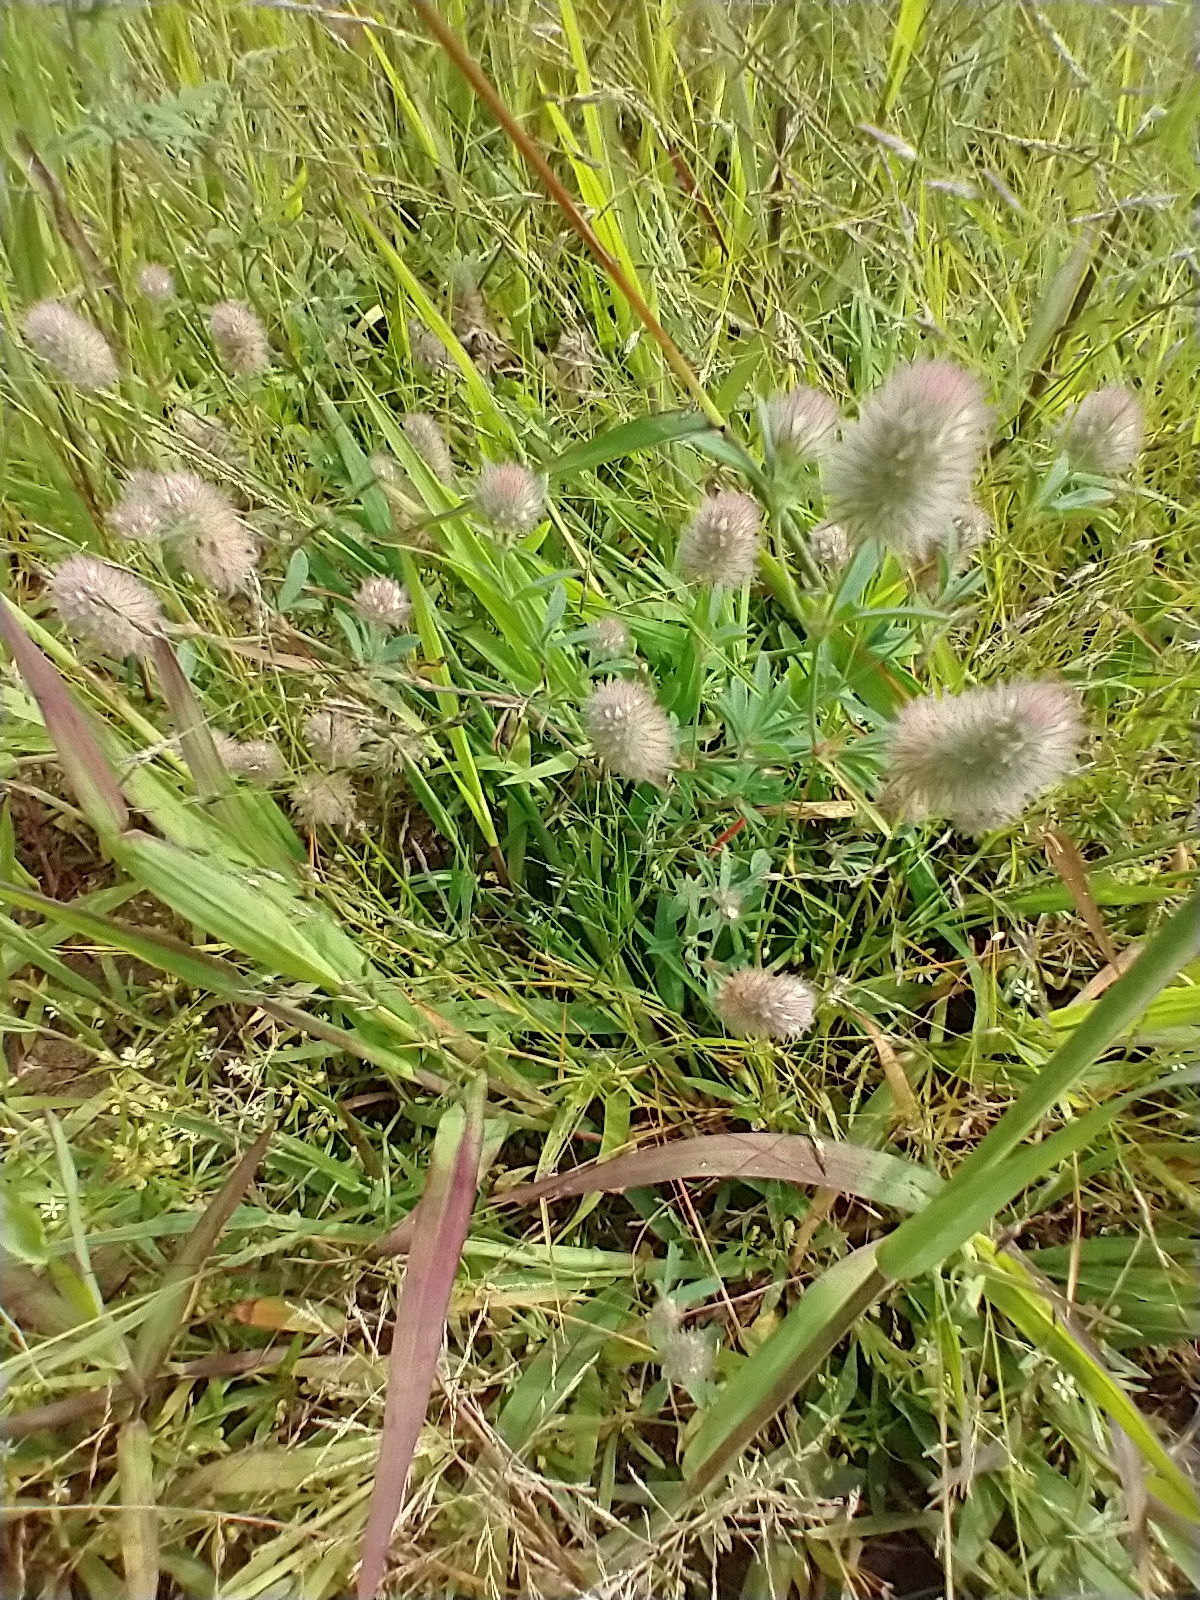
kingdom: Plantae
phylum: Tracheophyta
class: Magnoliopsida
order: Fabales
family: Fabaceae
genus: Trifolium
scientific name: Trifolium arvense
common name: Hare's-foot clover
